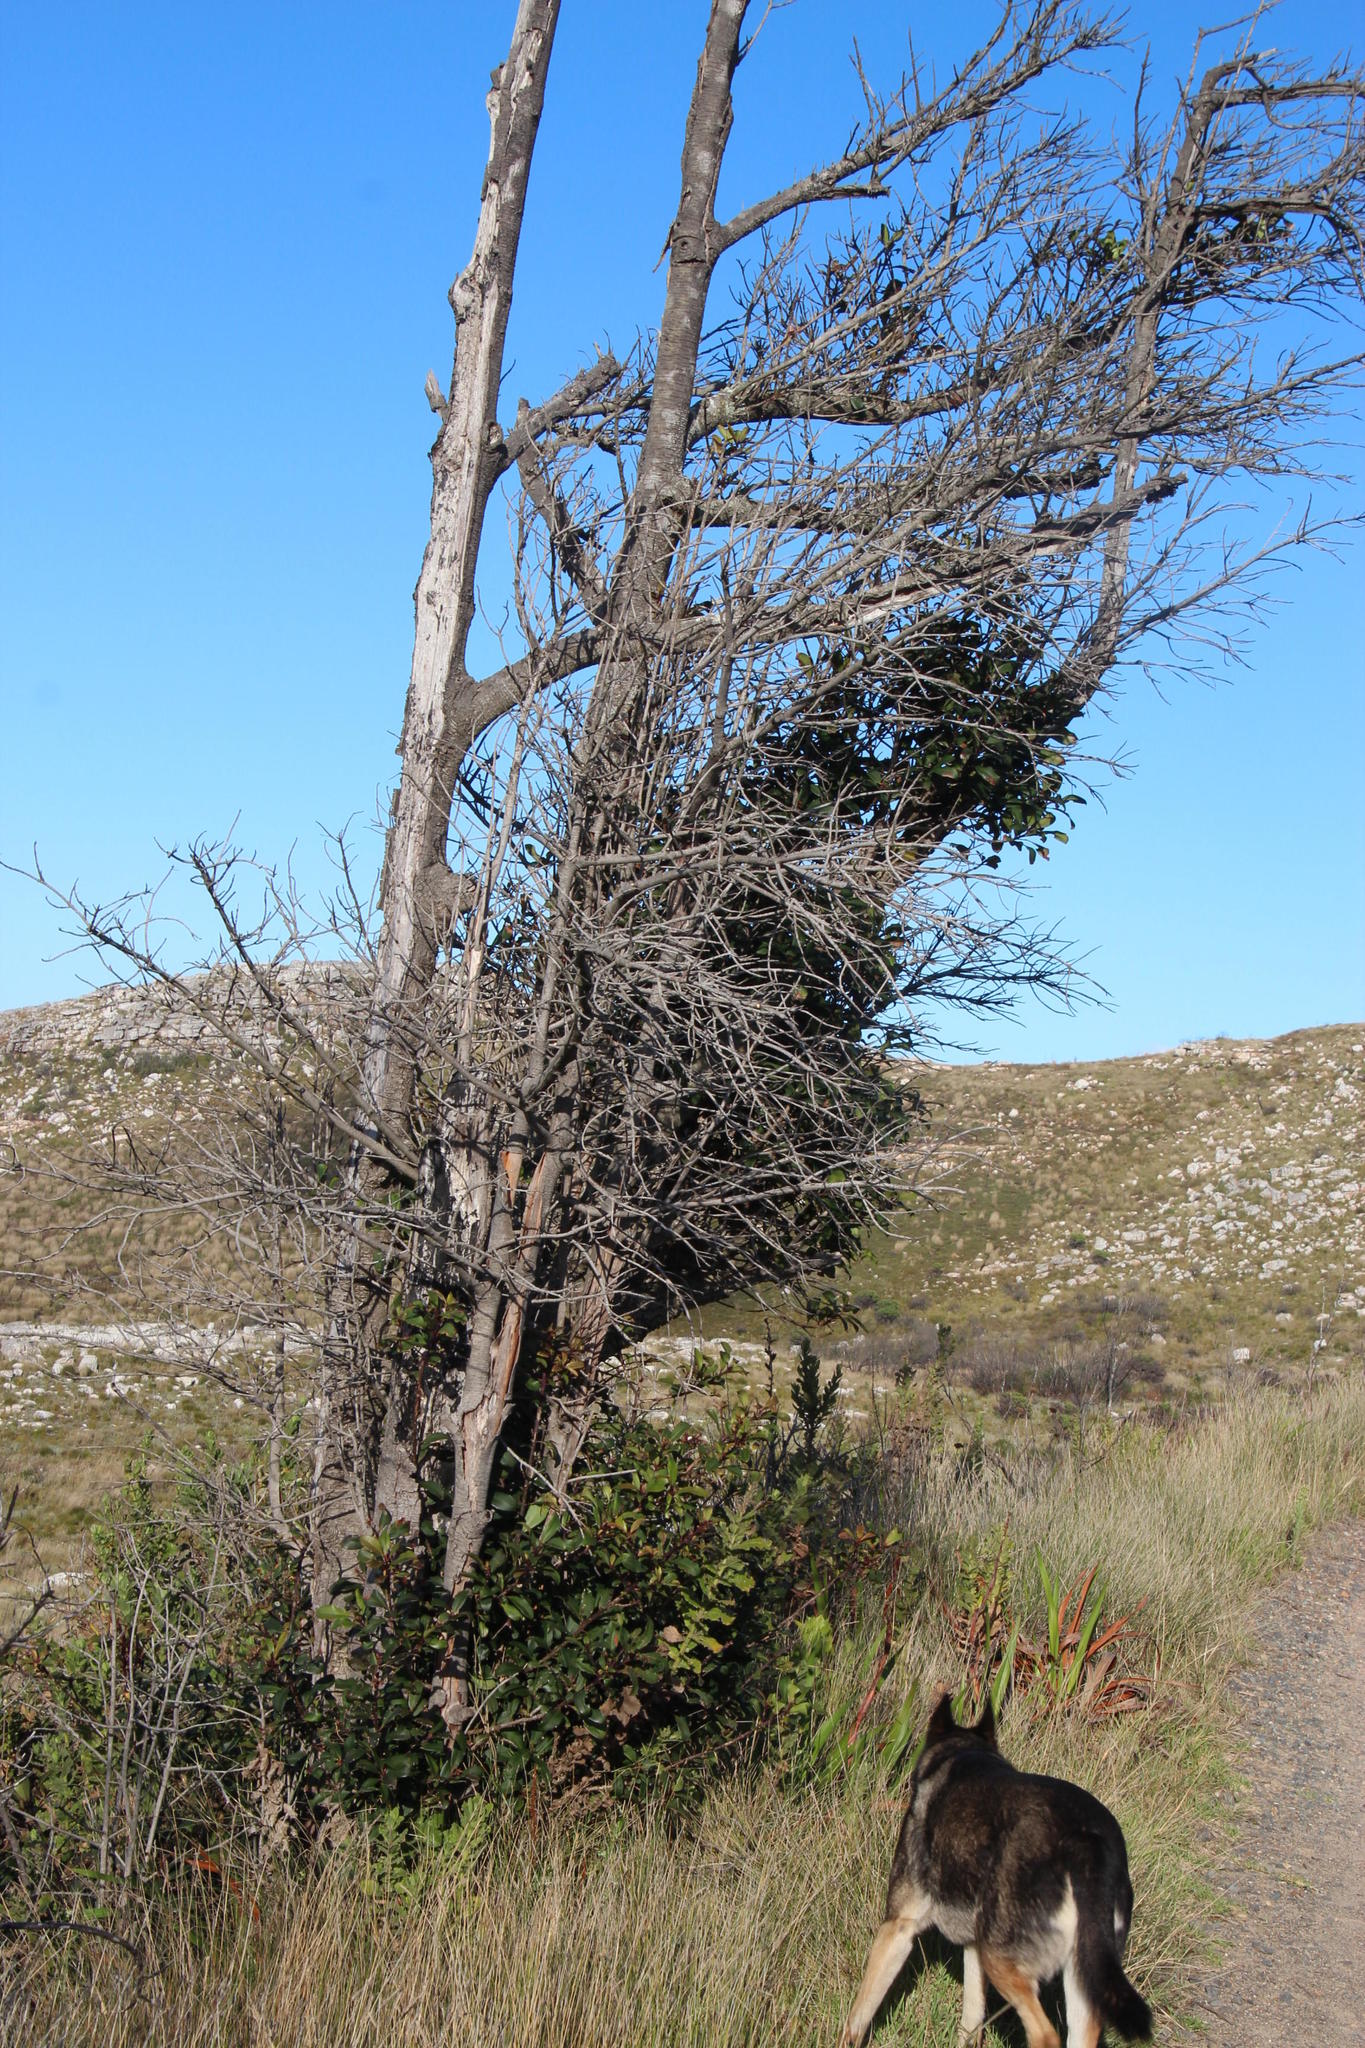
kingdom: Plantae
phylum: Tracheophyta
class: Magnoliopsida
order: Ericales
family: Primulaceae
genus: Myrsine
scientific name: Myrsine melanophloeos
